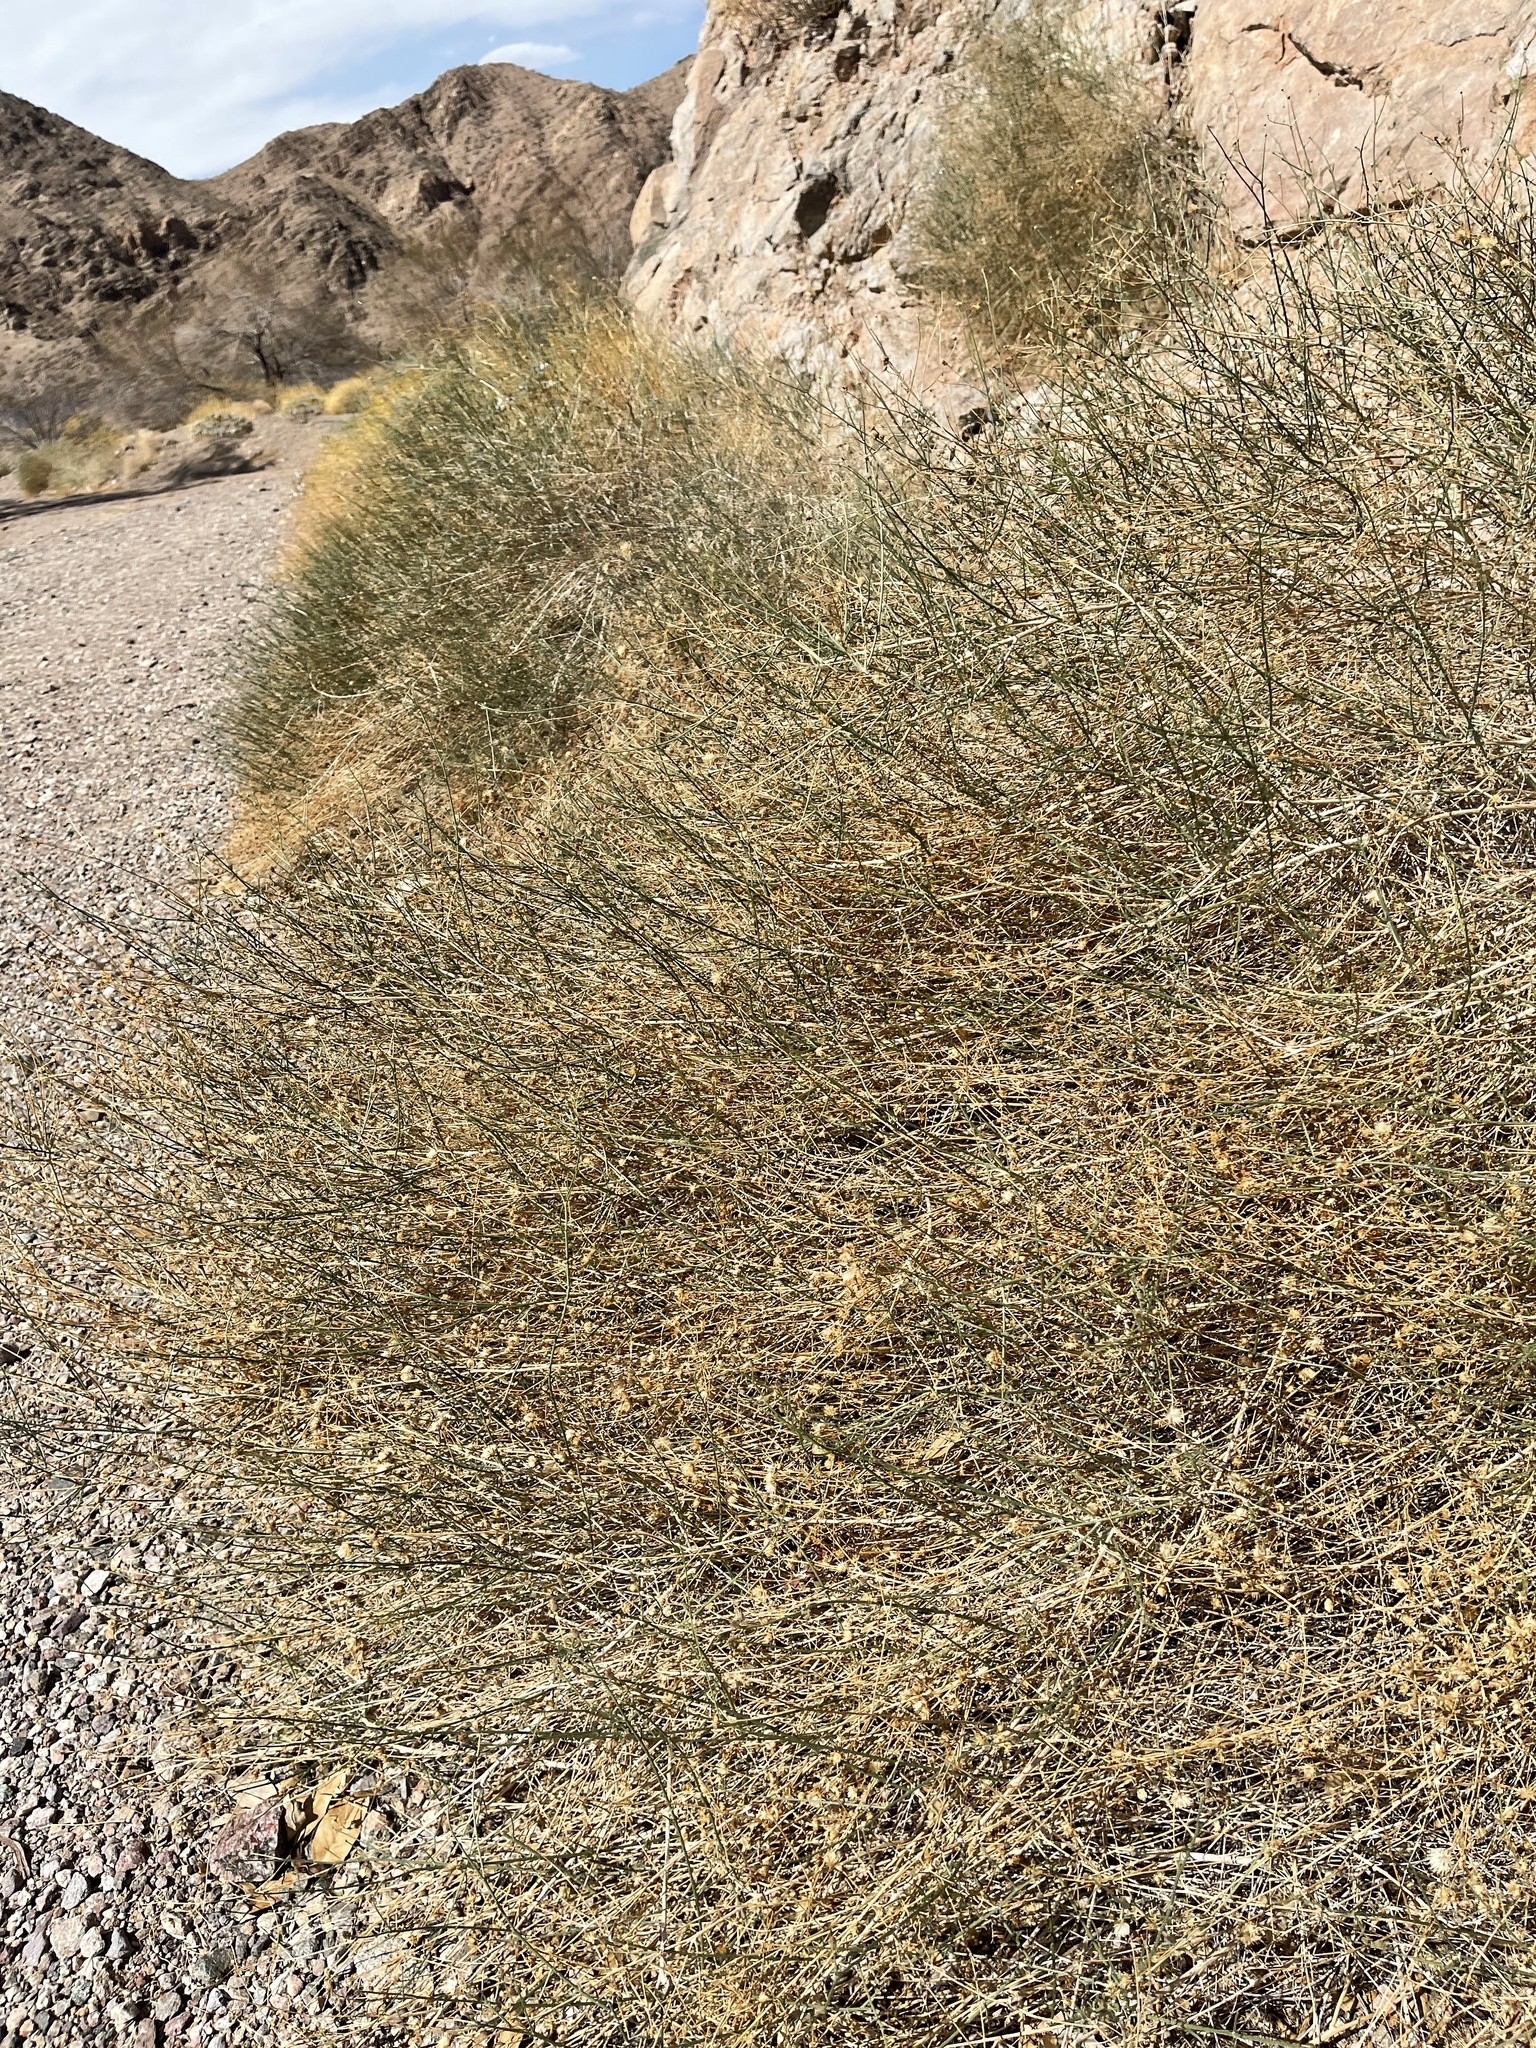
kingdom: Plantae
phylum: Tracheophyta
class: Magnoliopsida
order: Asterales
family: Asteraceae
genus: Bebbia
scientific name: Bebbia juncea
